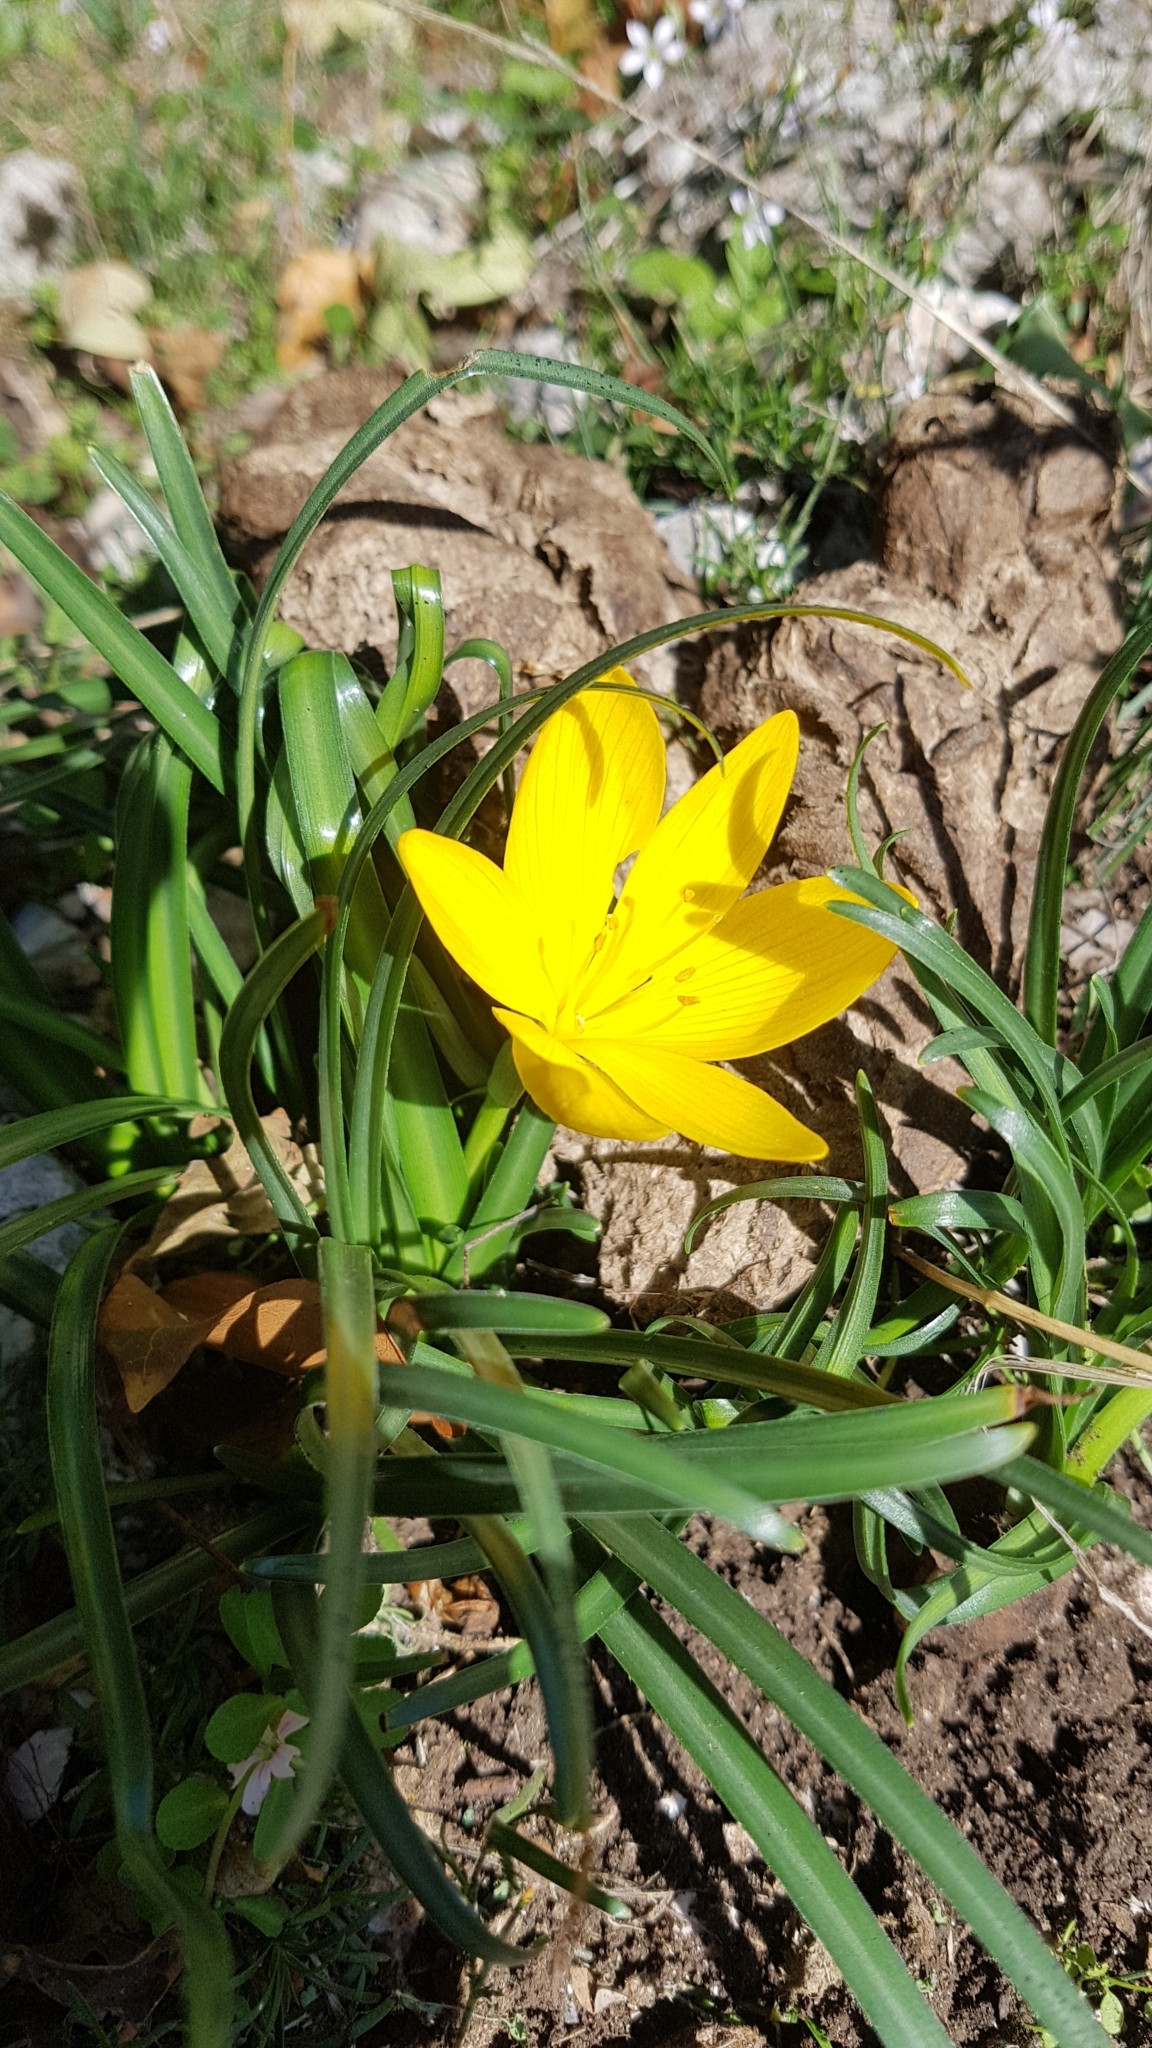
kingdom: Plantae
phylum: Tracheophyta
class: Liliopsida
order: Asparagales
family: Amaryllidaceae
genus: Sternbergia
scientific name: Sternbergia lutea
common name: Winter daffodil
